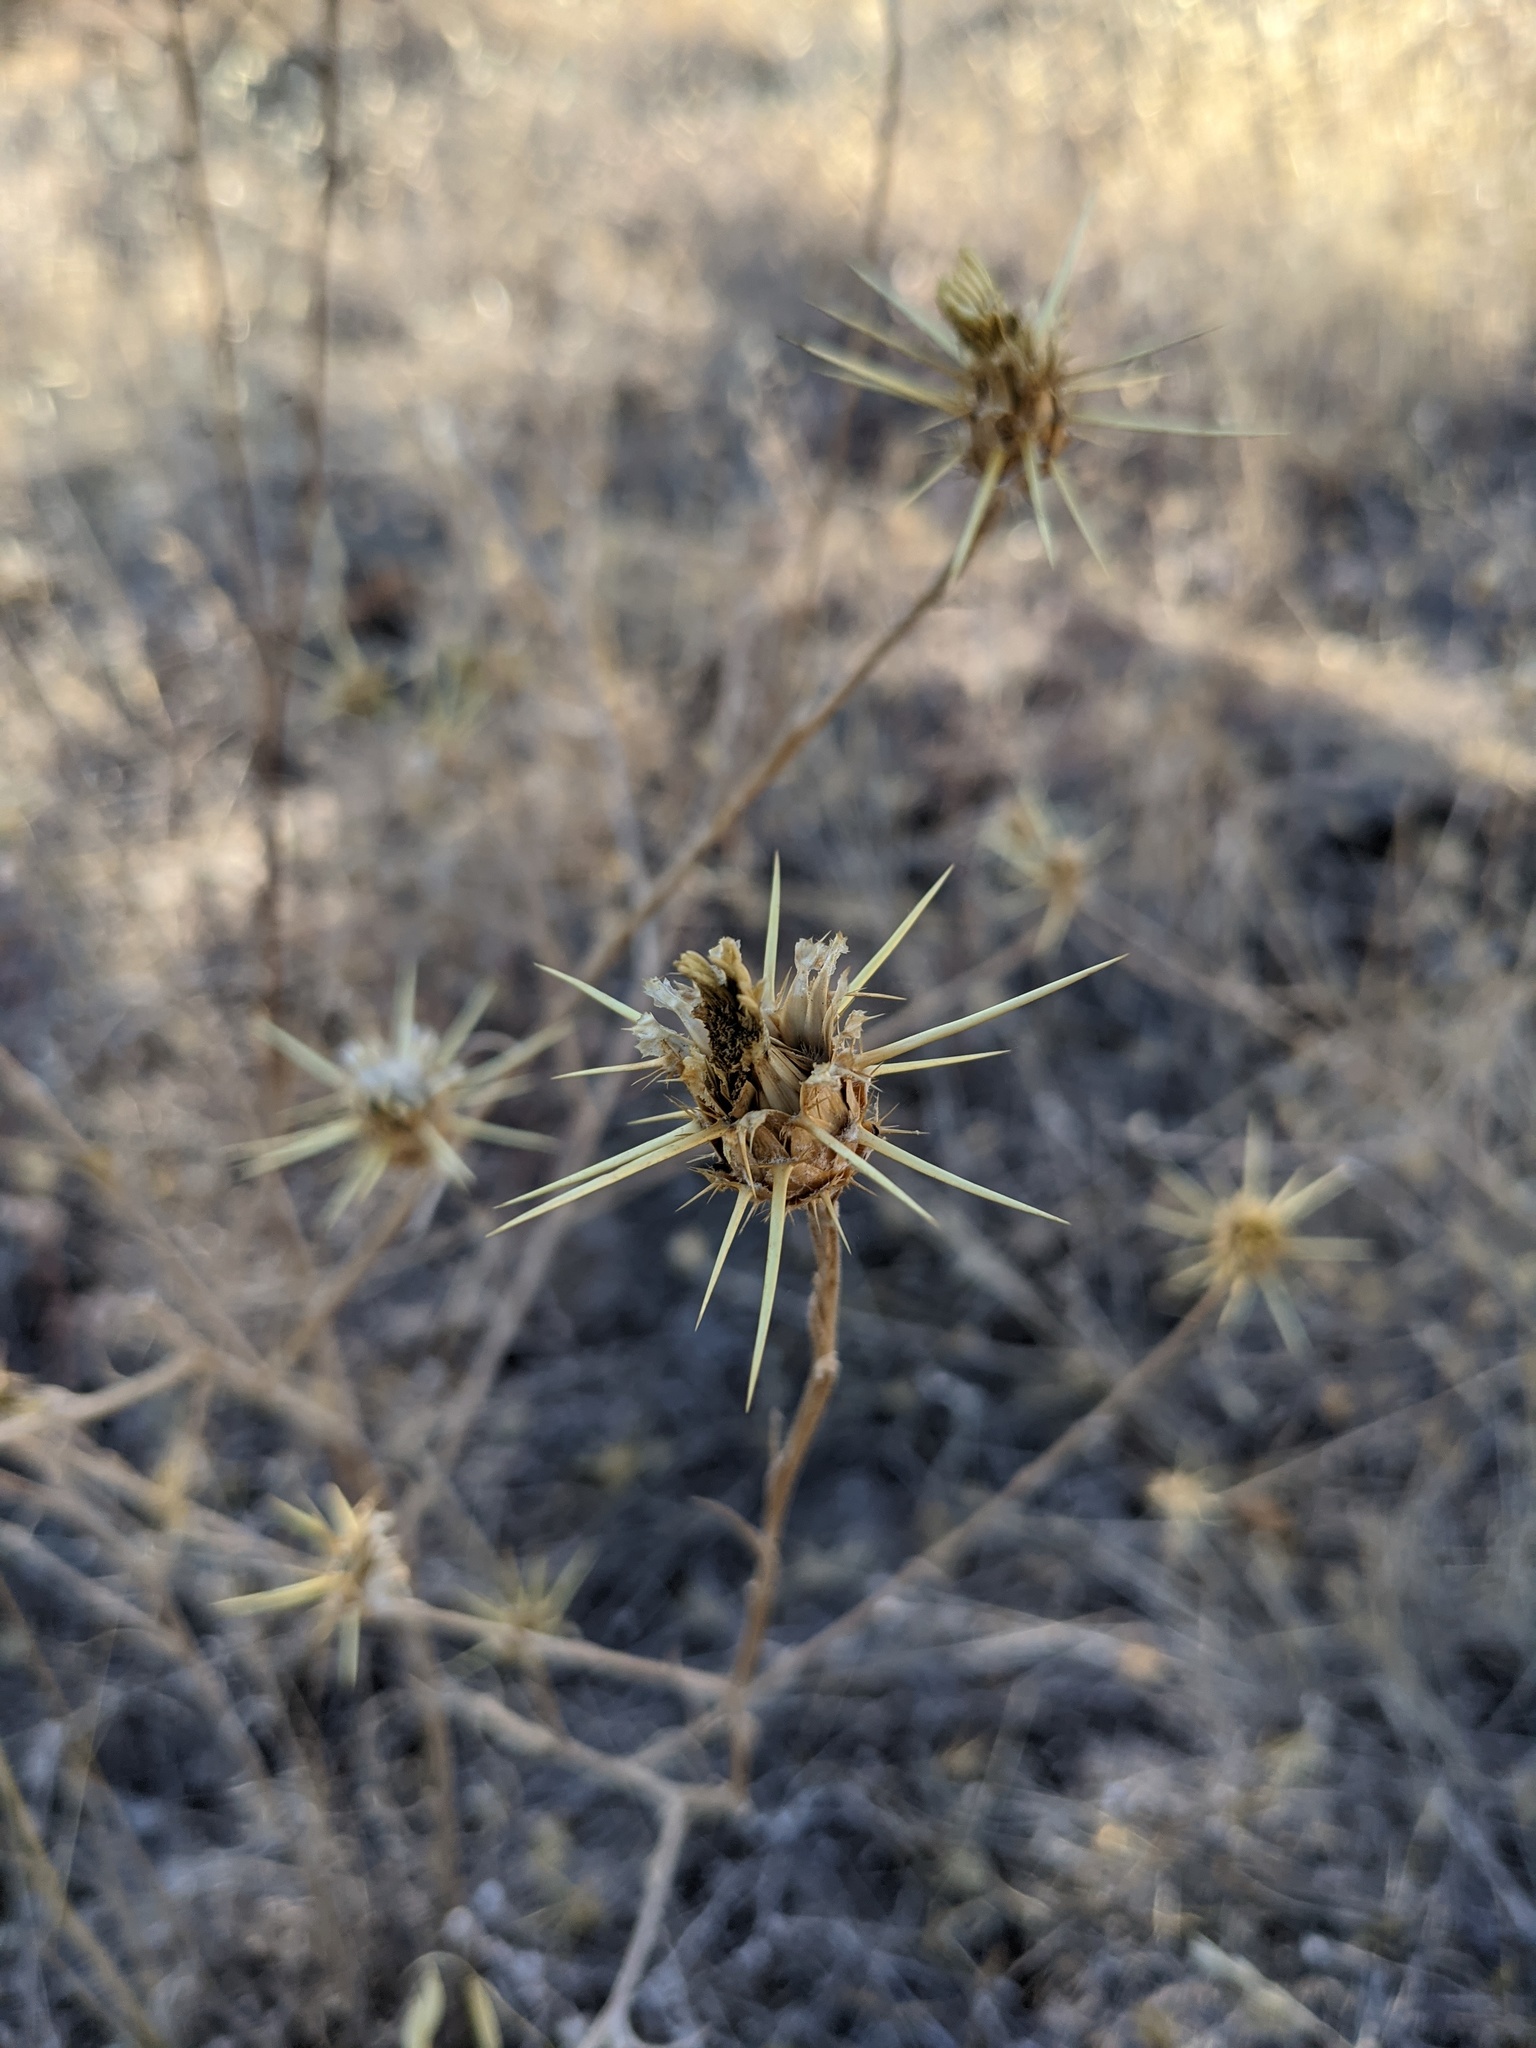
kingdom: Plantae
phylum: Tracheophyta
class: Magnoliopsida
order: Asterales
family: Asteraceae
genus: Centaurea
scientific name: Centaurea solstitialis
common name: Yellow star-thistle
